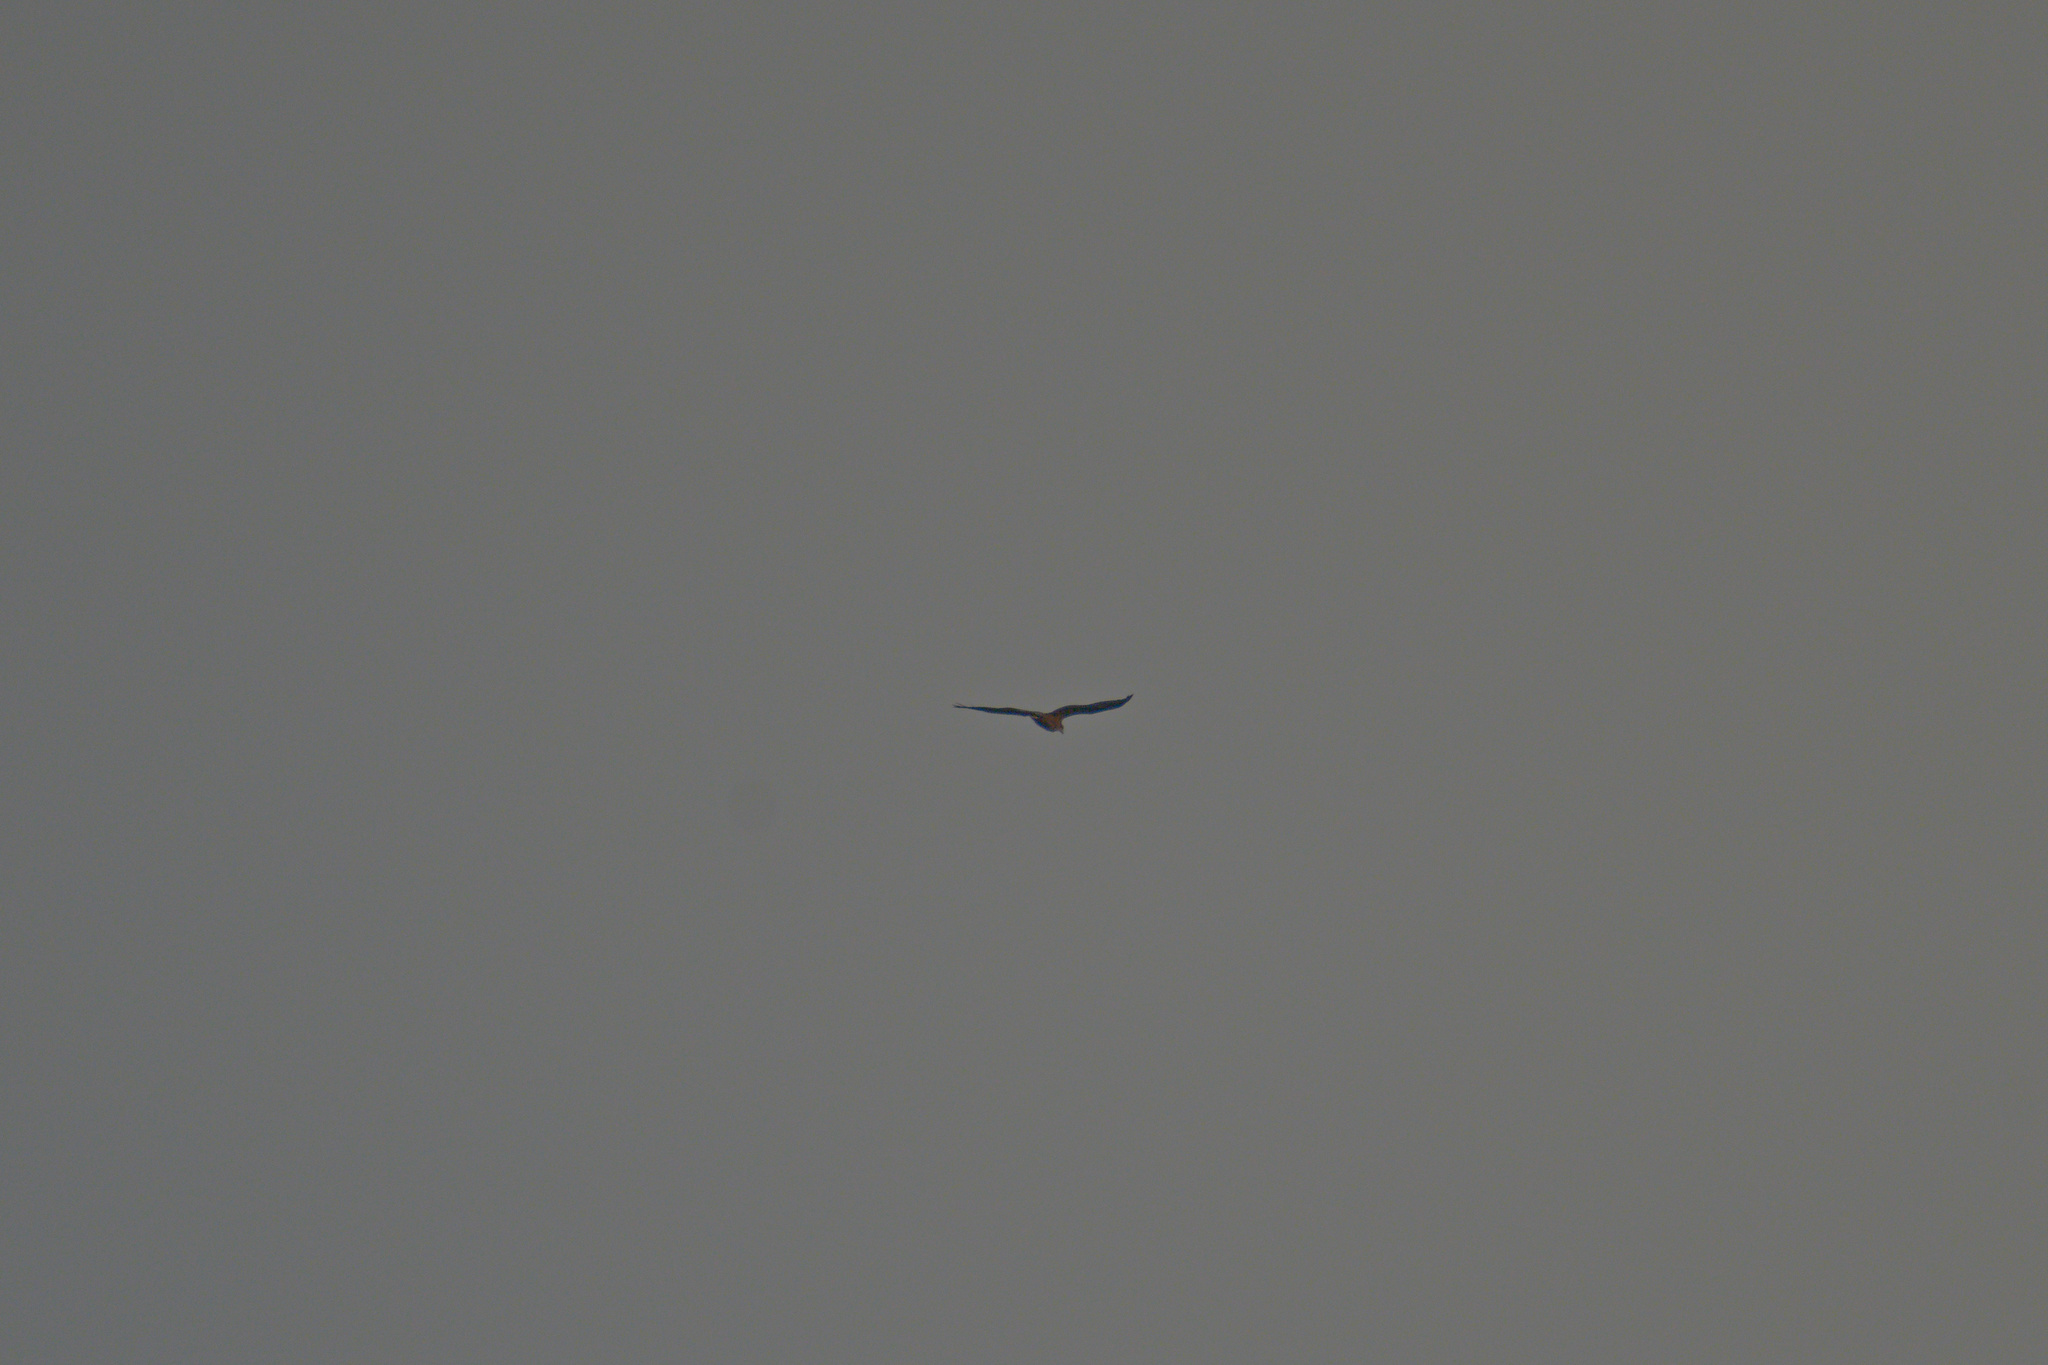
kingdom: Animalia
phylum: Chordata
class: Aves
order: Accipitriformes
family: Accipitridae
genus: Circus
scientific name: Circus aeruginosus
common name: Western marsh harrier
